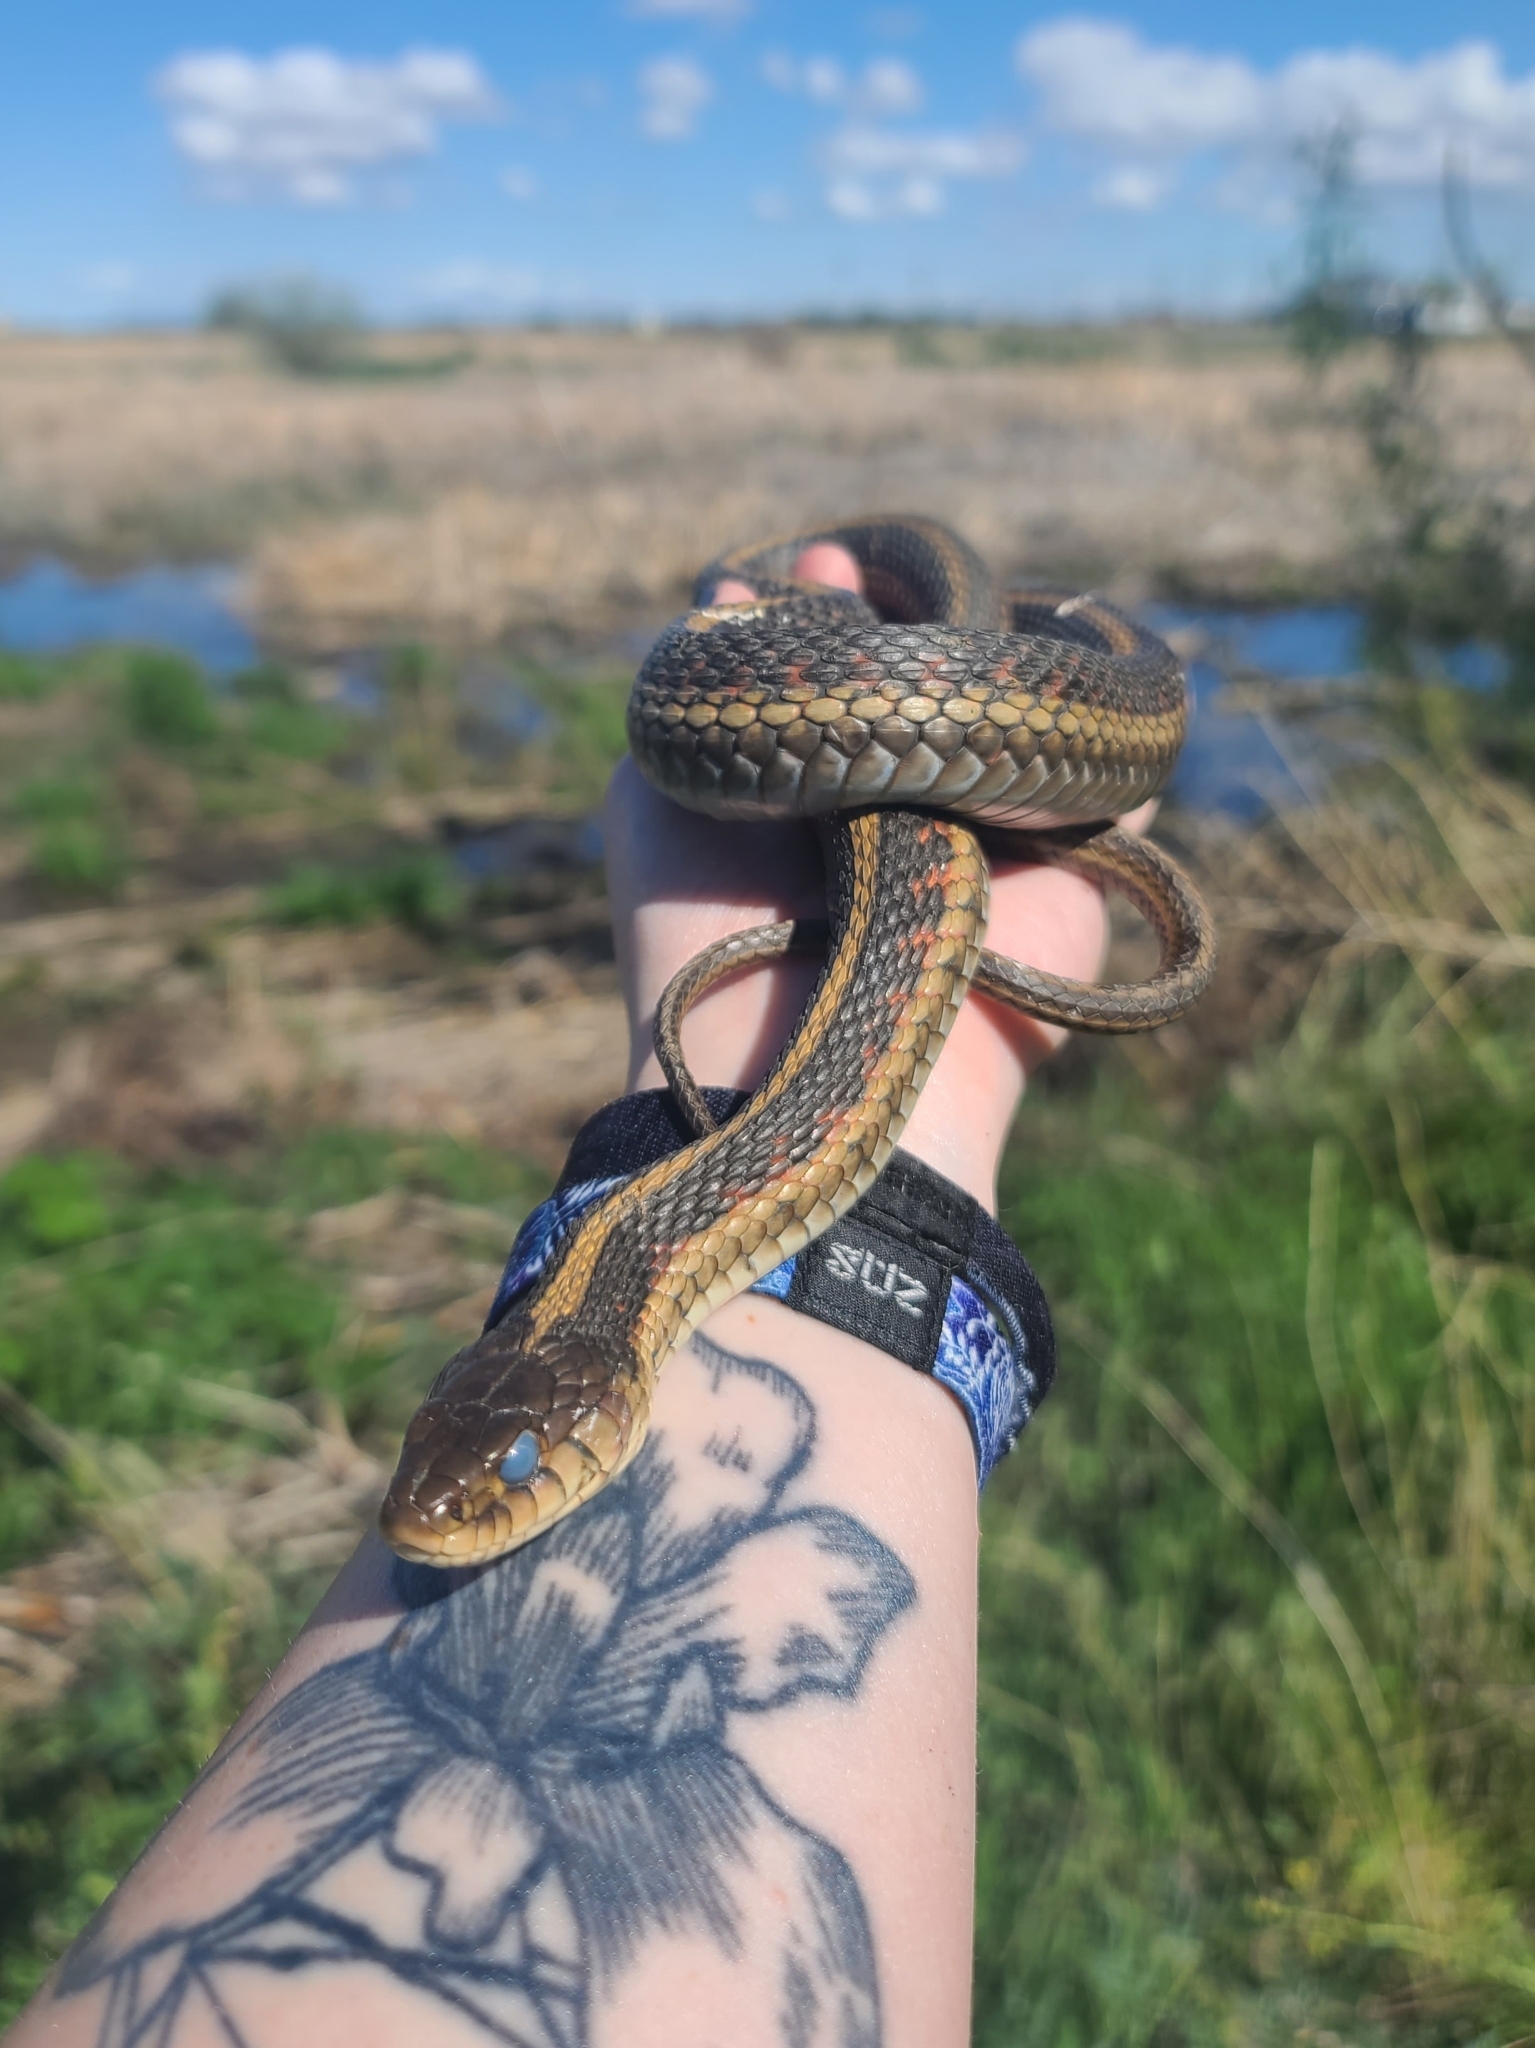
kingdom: Animalia
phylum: Chordata
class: Squamata
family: Colubridae
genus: Thamnophis
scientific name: Thamnophis sirtalis
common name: Common garter snake
